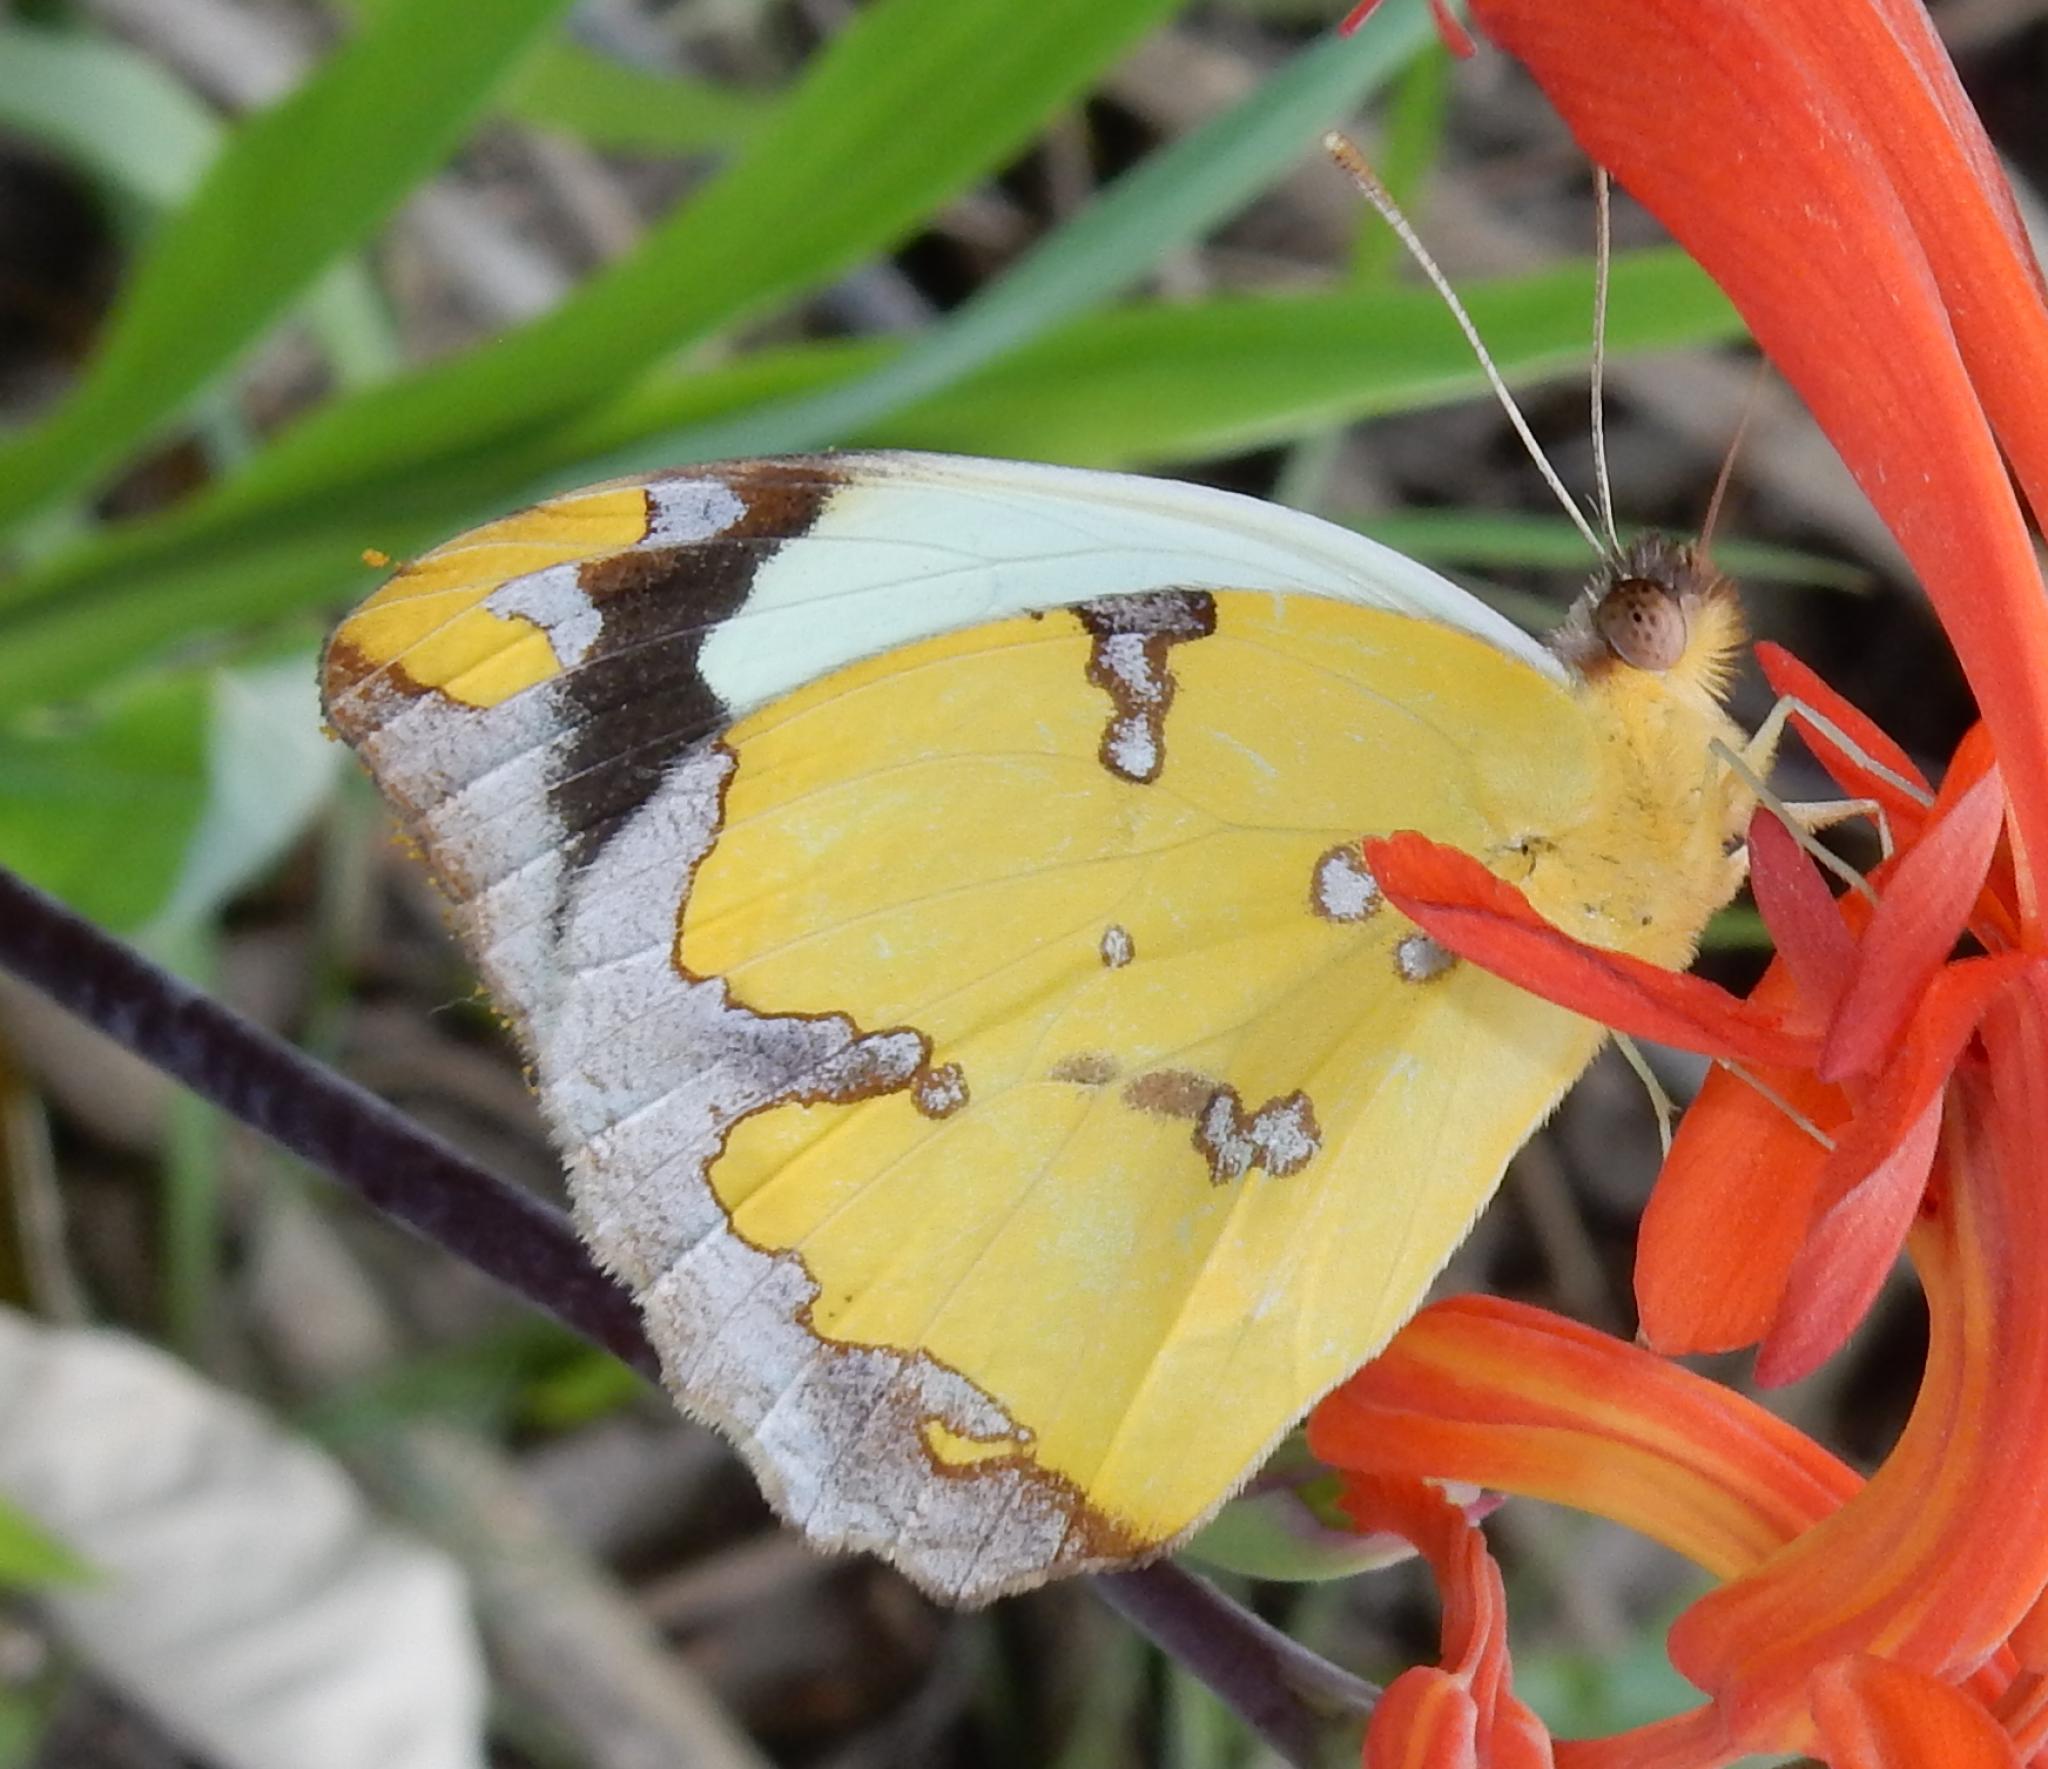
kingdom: Animalia
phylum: Arthropoda
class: Insecta
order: Lepidoptera
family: Pieridae
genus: Eronia
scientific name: Eronia cleodora
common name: Vine-leaf vagrant
